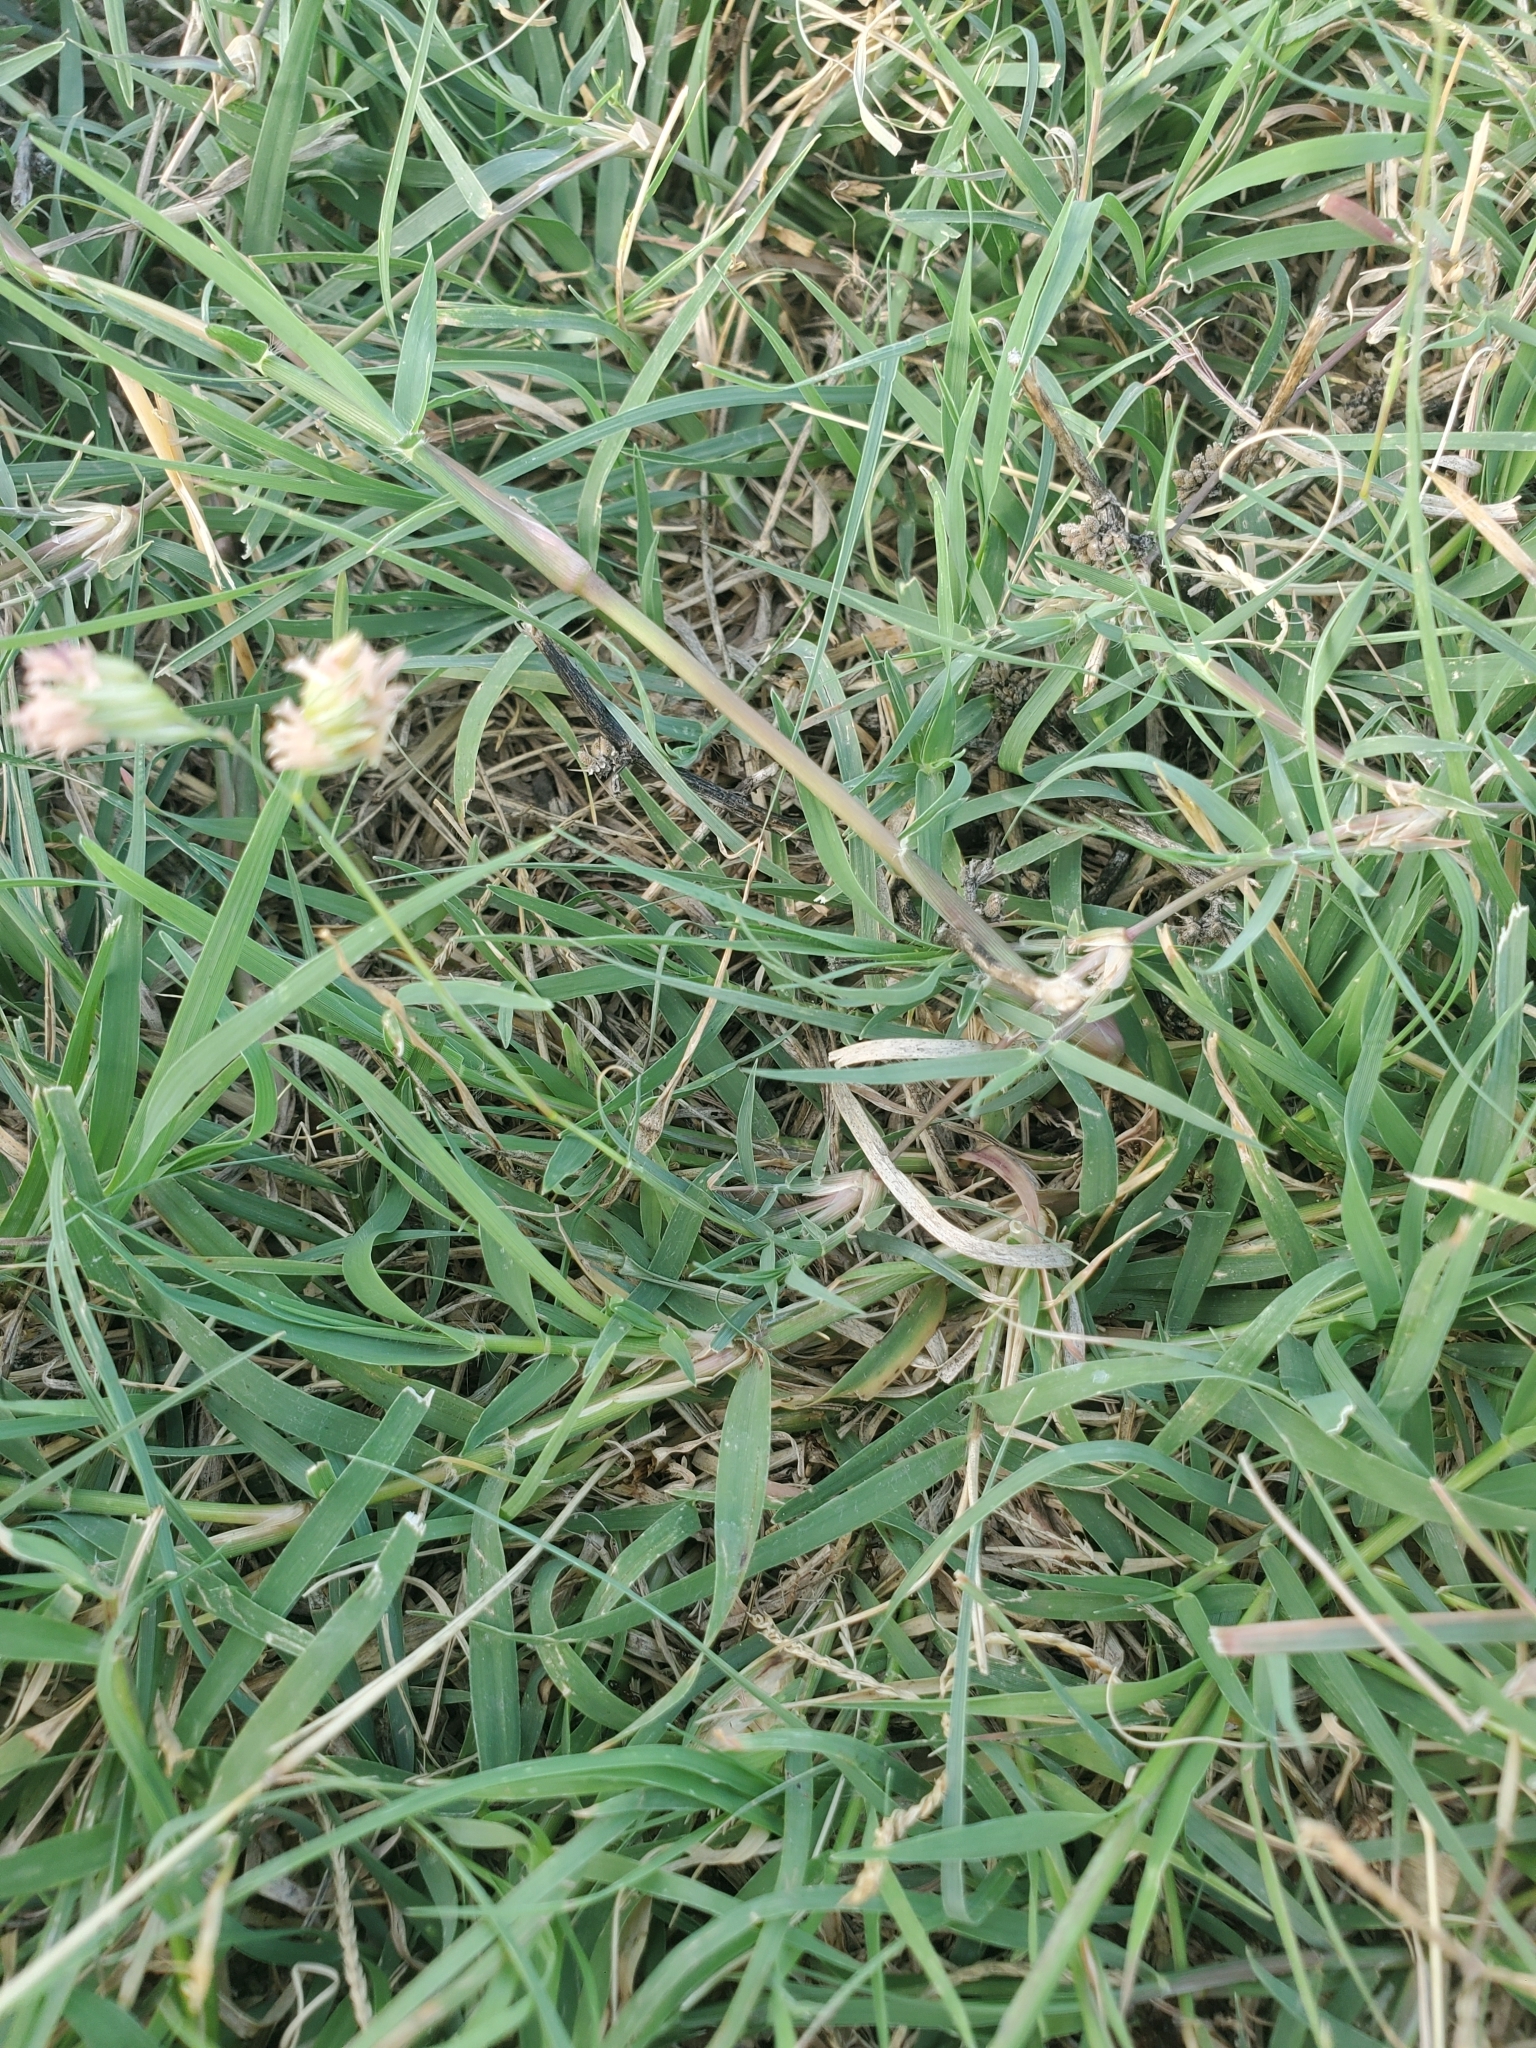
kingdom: Plantae
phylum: Tracheophyta
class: Liliopsida
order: Poales
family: Poaceae
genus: Bouteloua
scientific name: Bouteloua dactyloides
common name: Buffalo grass
